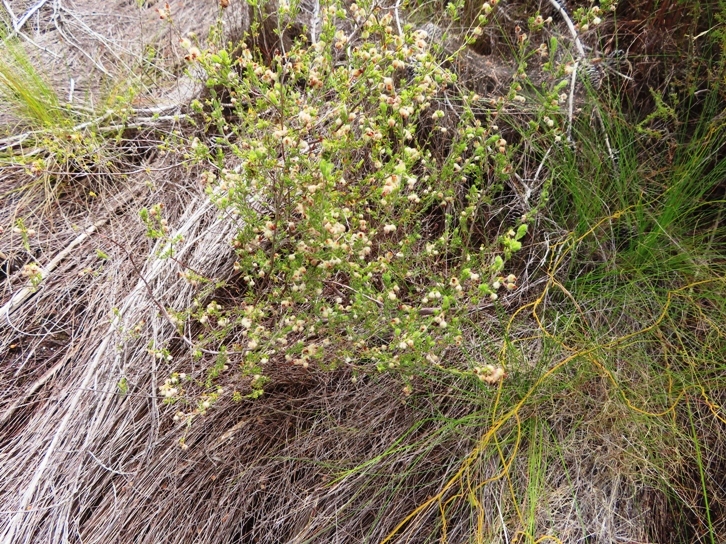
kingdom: Plantae
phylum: Tracheophyta
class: Magnoliopsida
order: Ericales
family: Ericaceae
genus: Erica
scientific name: Erica villosa
